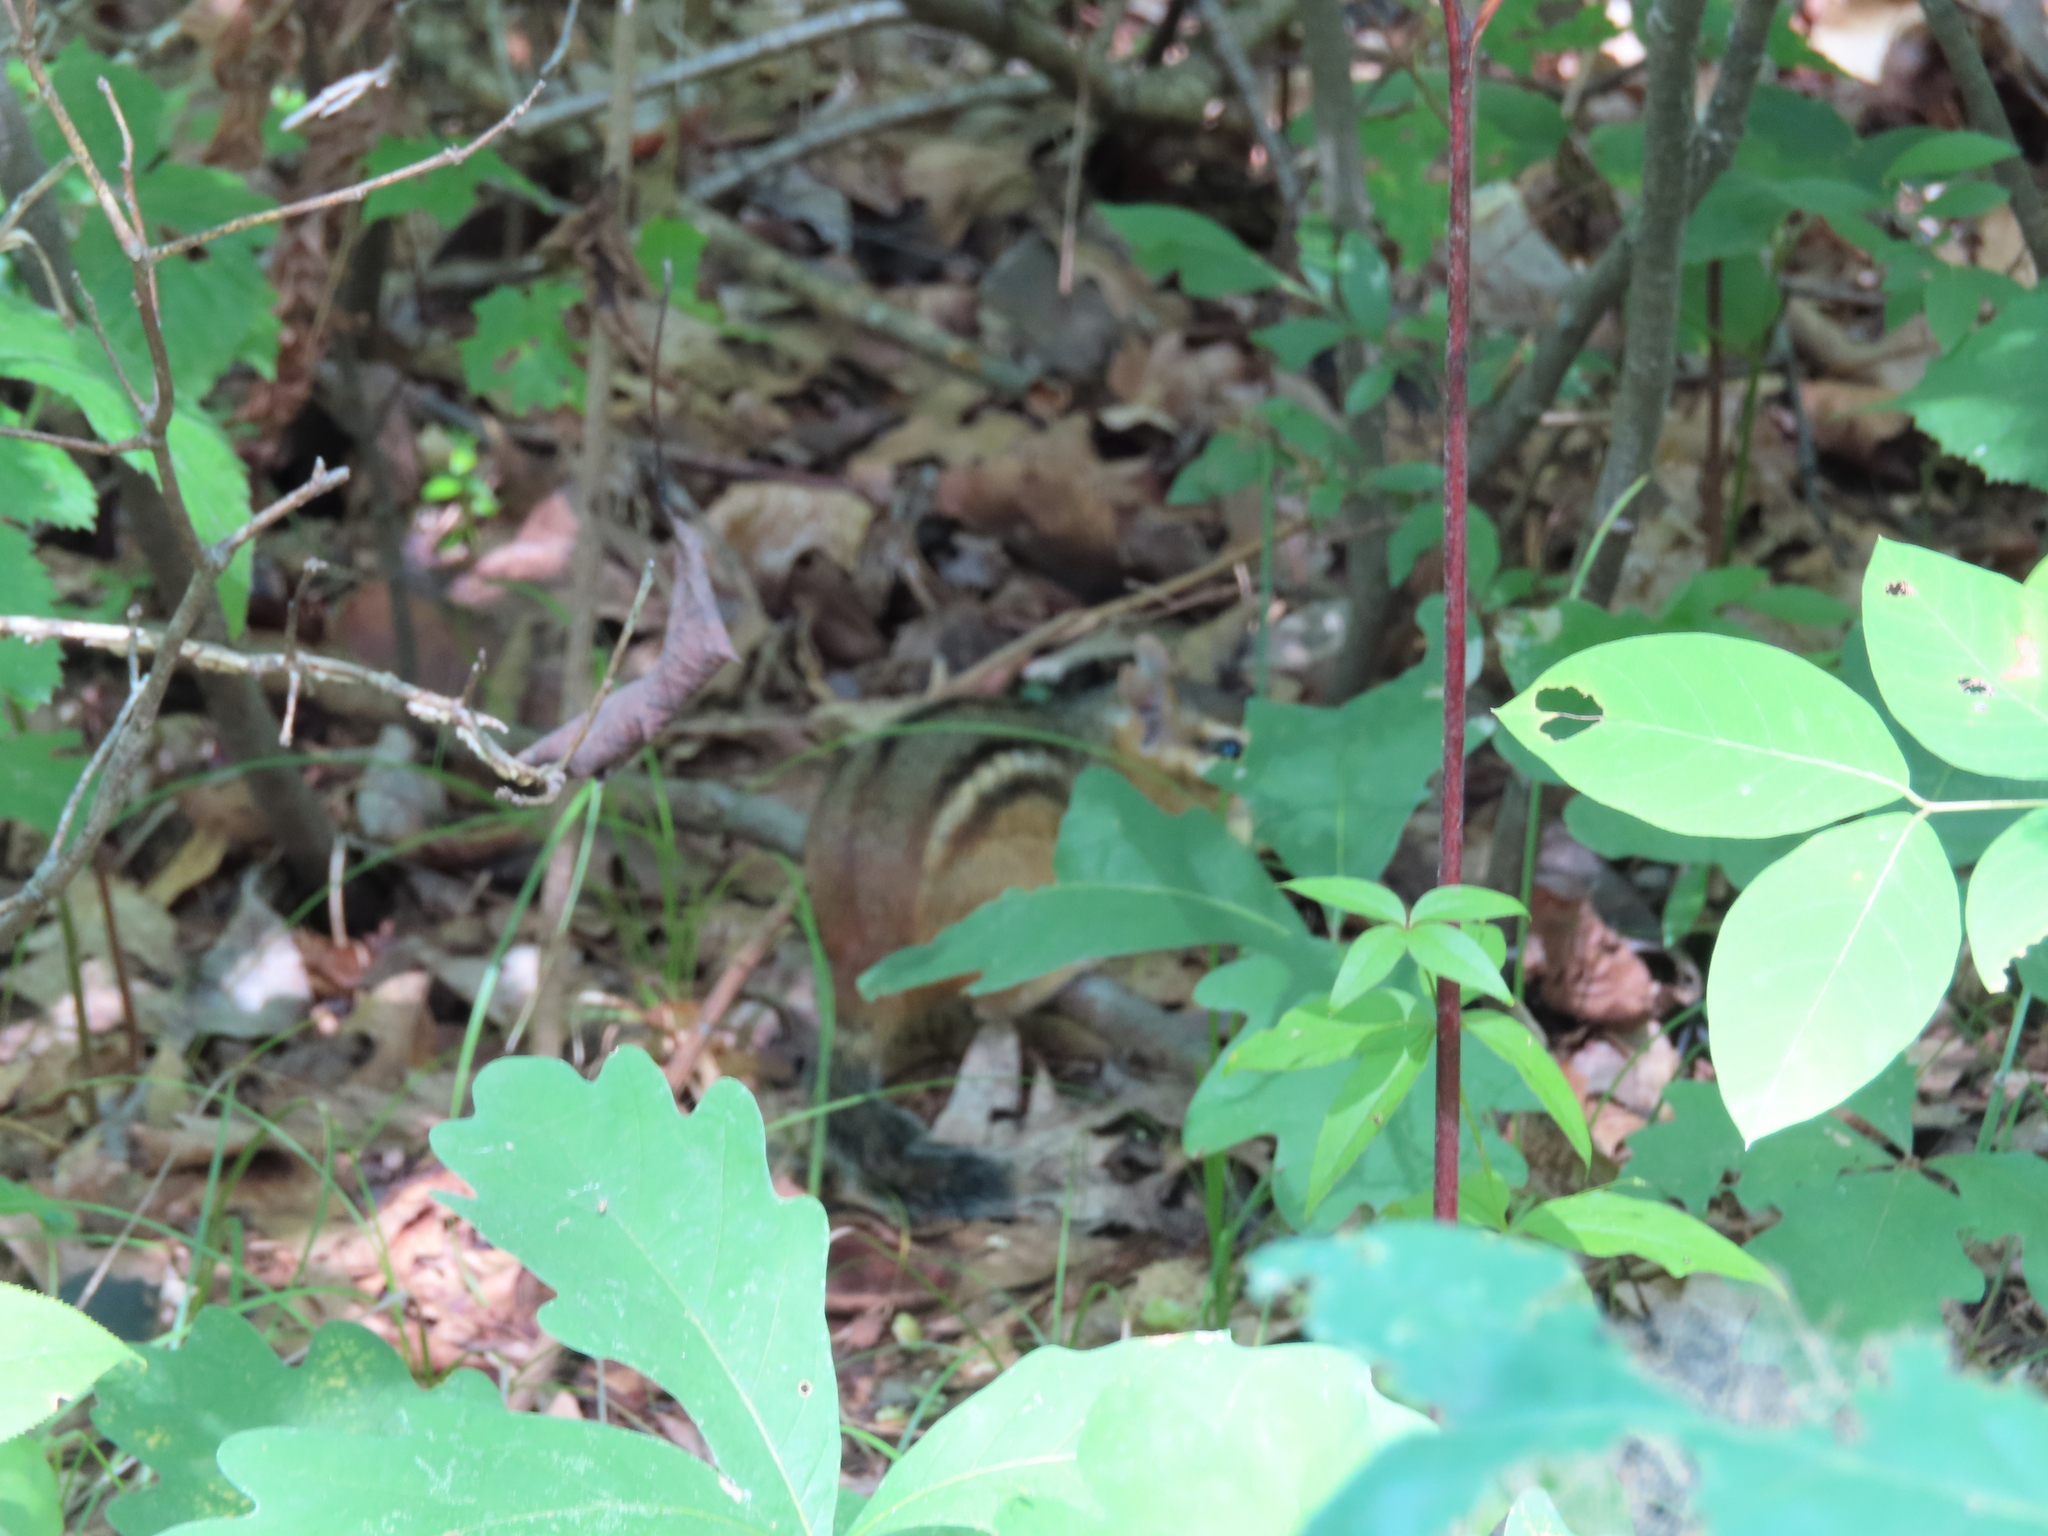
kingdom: Animalia
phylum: Chordata
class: Mammalia
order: Rodentia
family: Sciuridae
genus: Tamias
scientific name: Tamias striatus
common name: Eastern chipmunk
